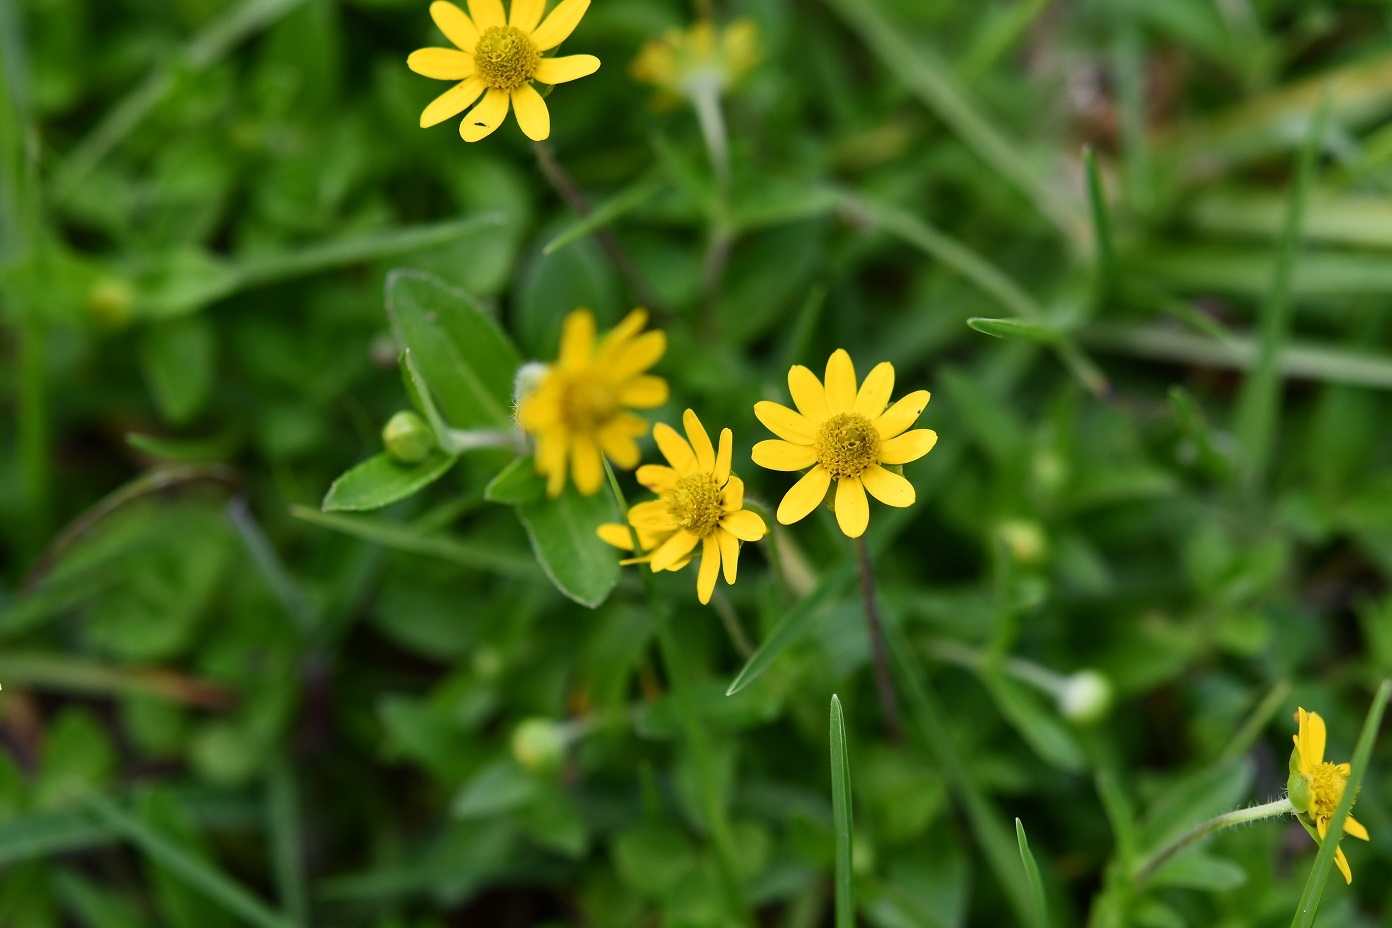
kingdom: Plantae
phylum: Tracheophyta
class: Magnoliopsida
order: Asterales
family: Asteraceae
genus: Melampodium
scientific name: Melampodium montanum
